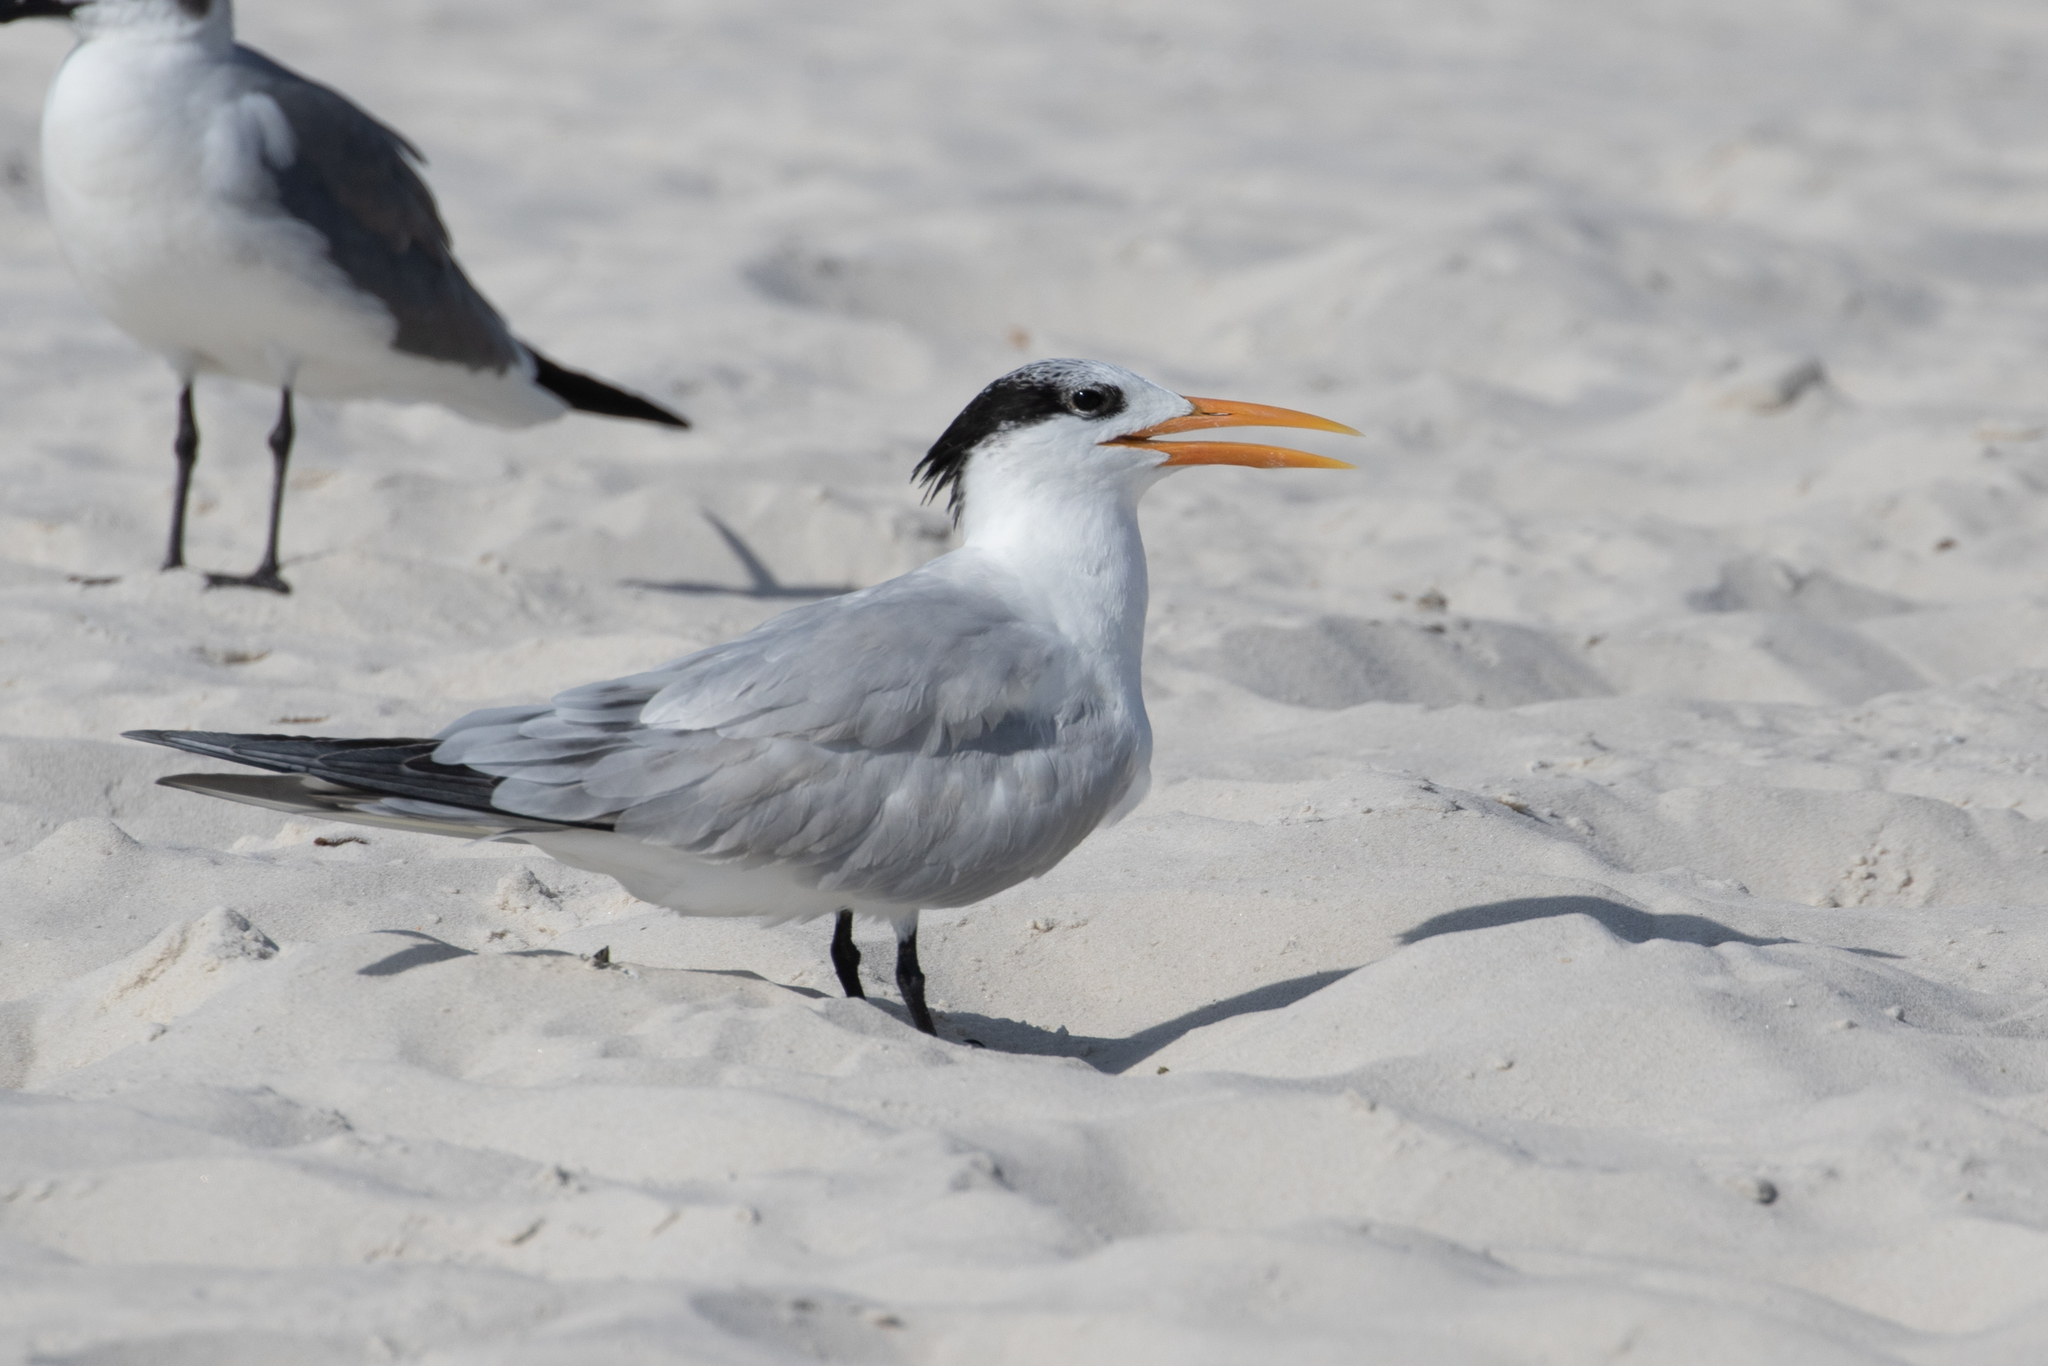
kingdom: Animalia
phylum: Chordata
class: Aves
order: Charadriiformes
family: Laridae
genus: Thalasseus
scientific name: Thalasseus maximus
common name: Royal tern
